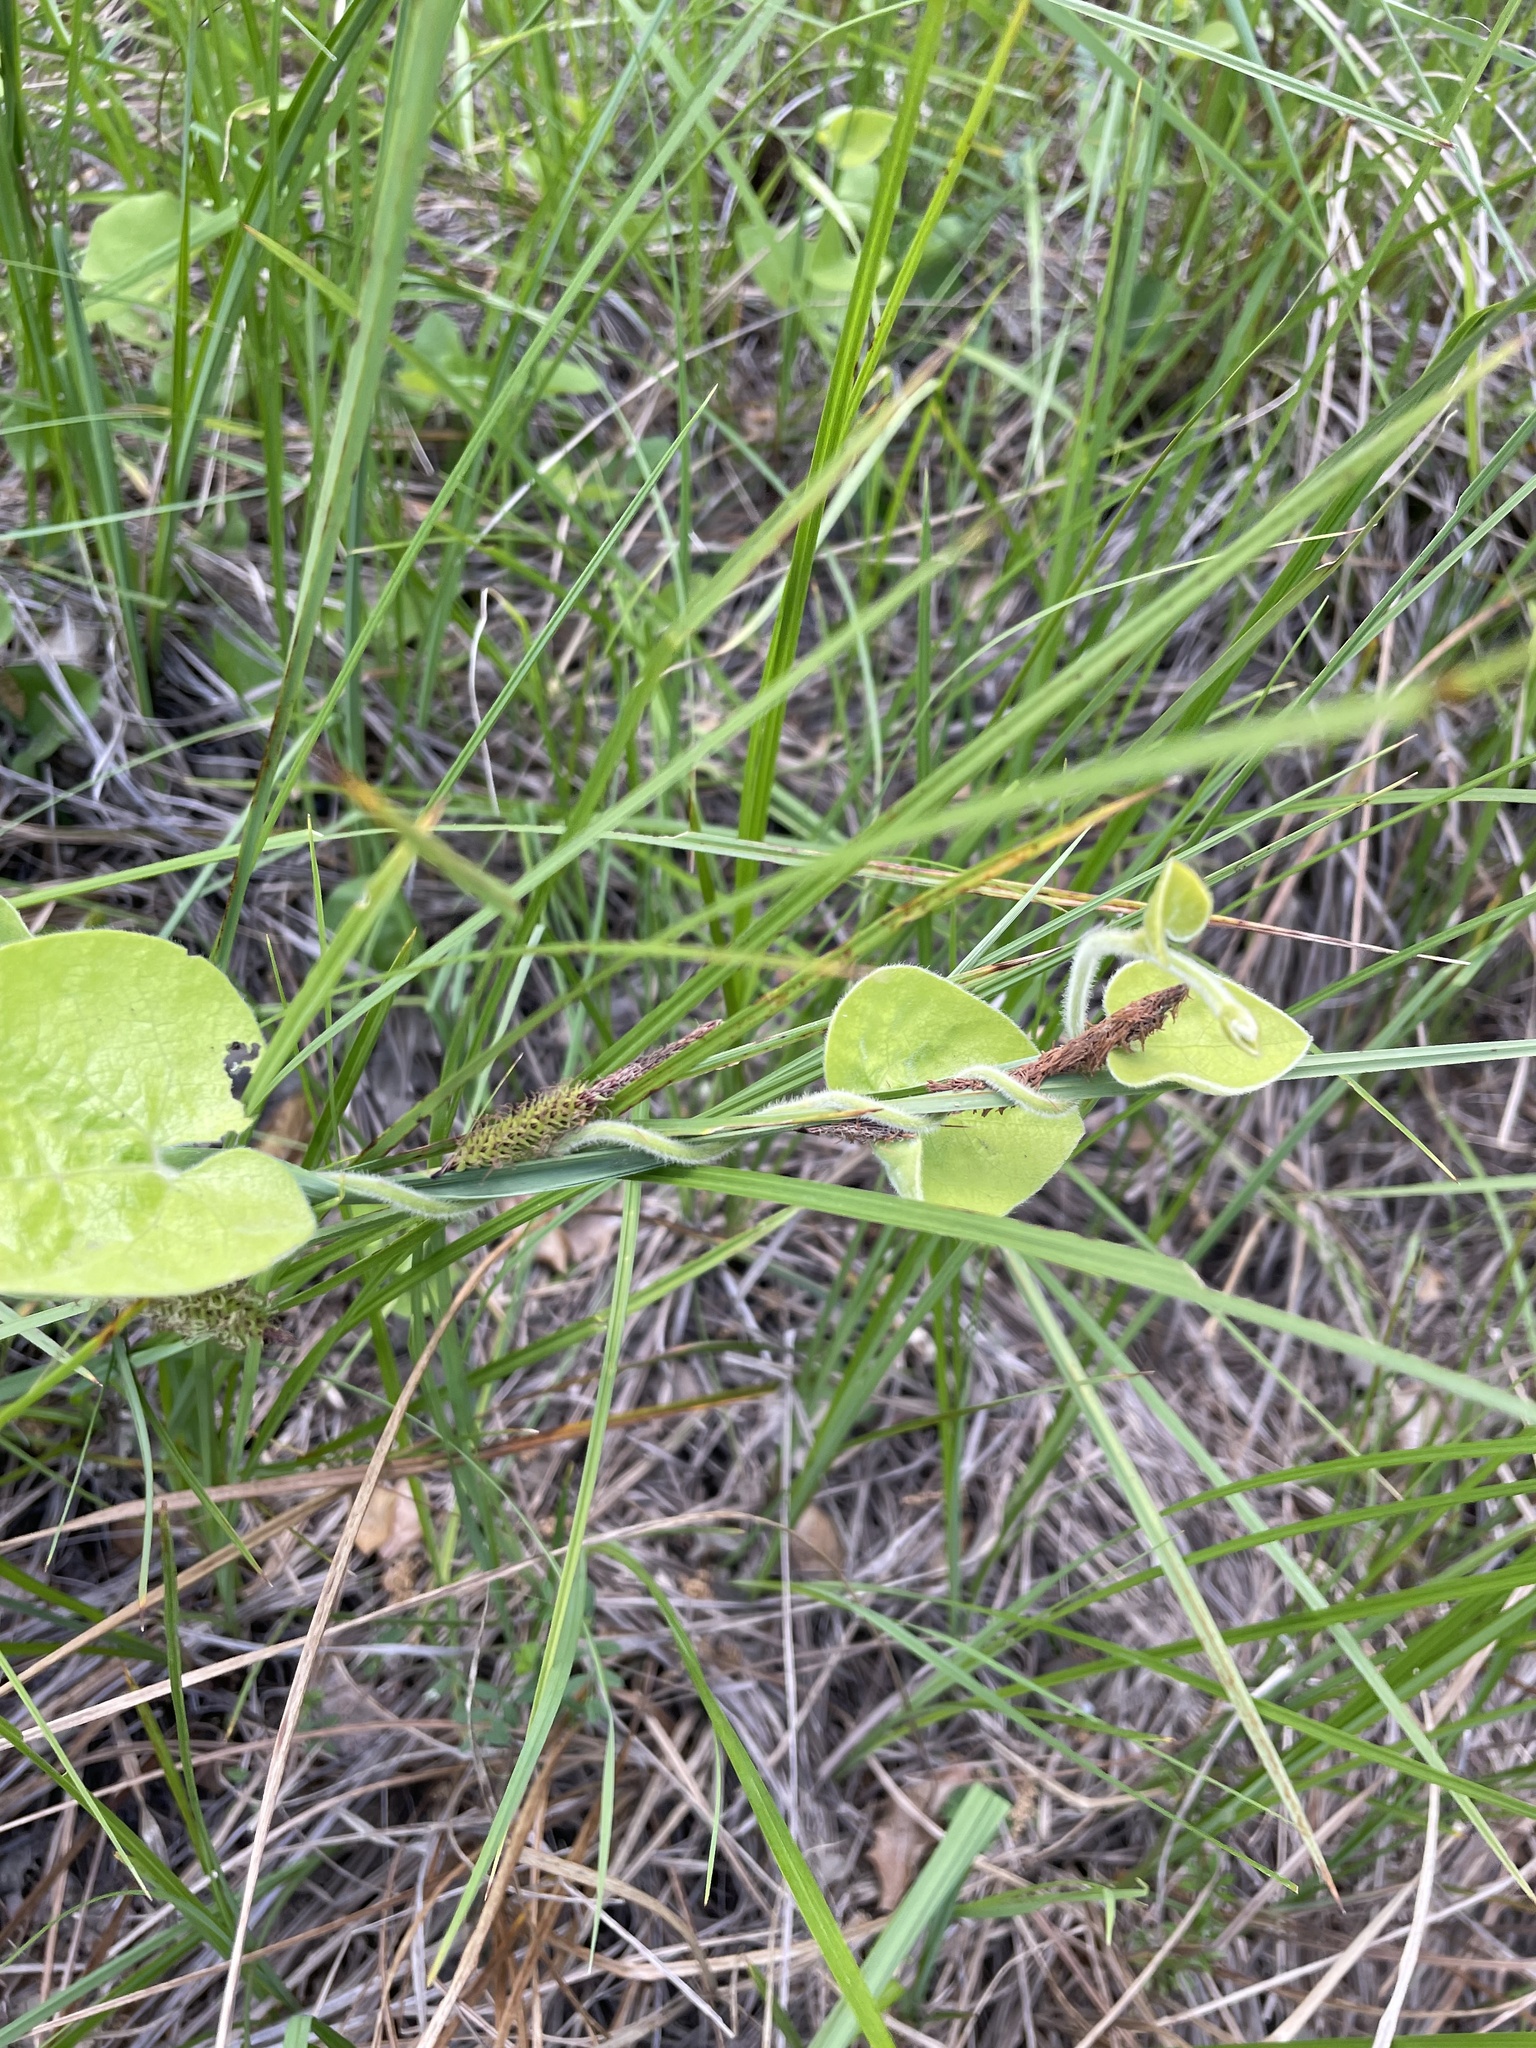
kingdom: Plantae
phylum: Tracheophyta
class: Magnoliopsida
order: Piperales
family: Aristolochiaceae
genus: Isotrema
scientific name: Isotrema californicum
